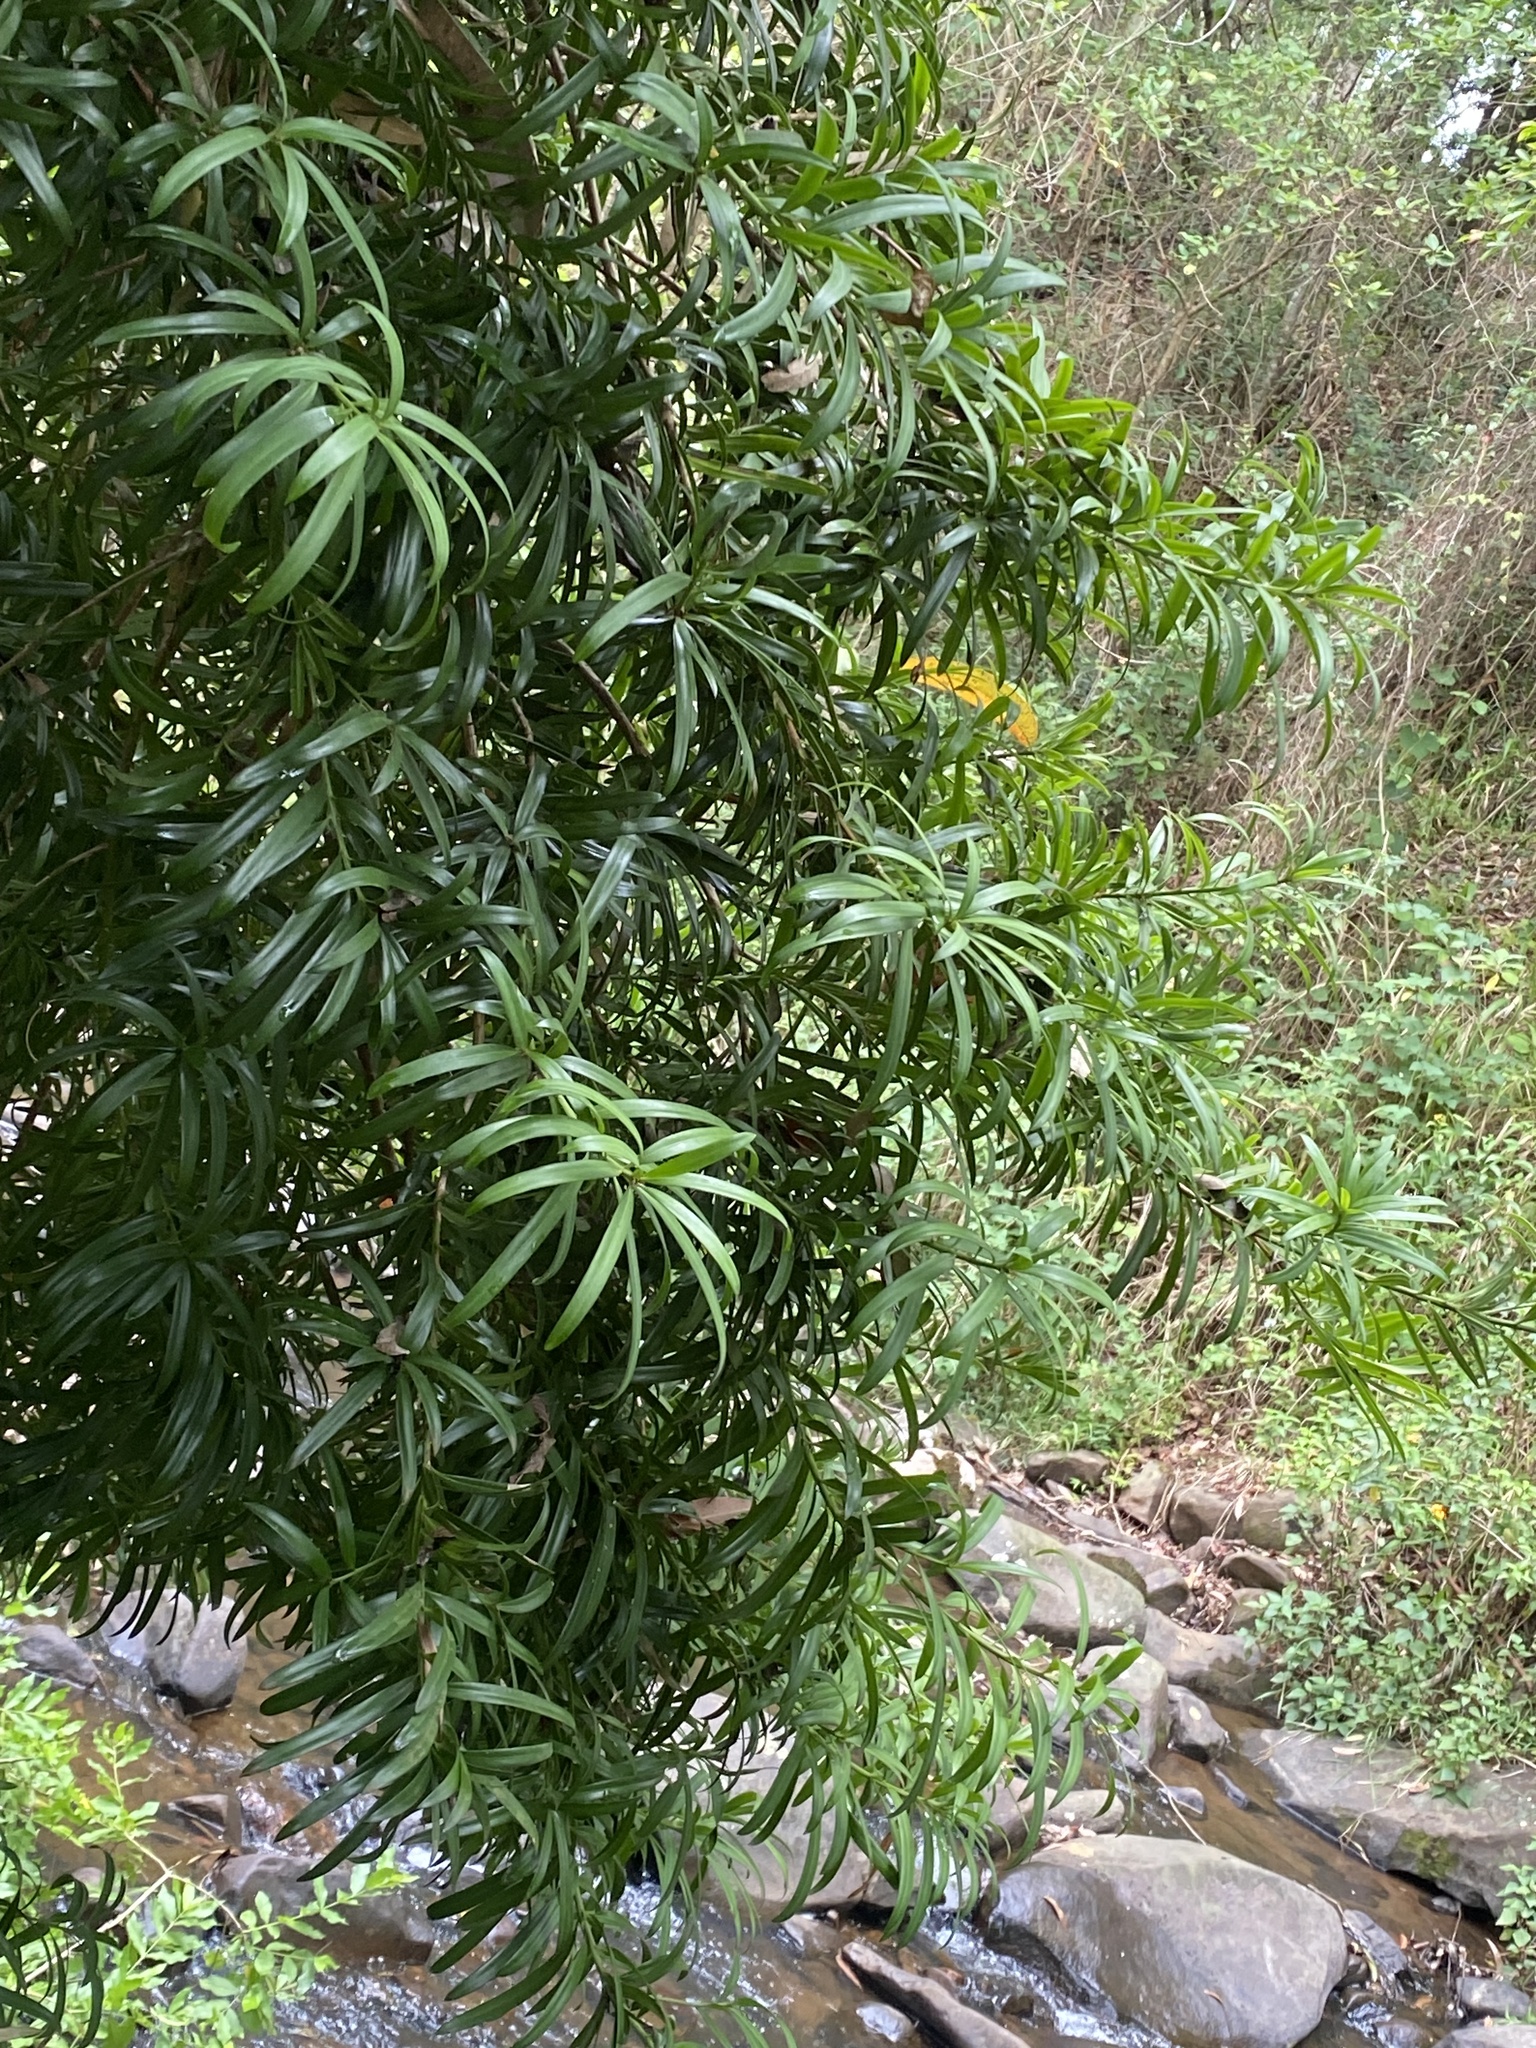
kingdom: Plantae
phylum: Tracheophyta
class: Pinopsida
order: Pinales
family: Podocarpaceae
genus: Podocarpus
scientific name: Podocarpus latifolius
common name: True yellowwood
